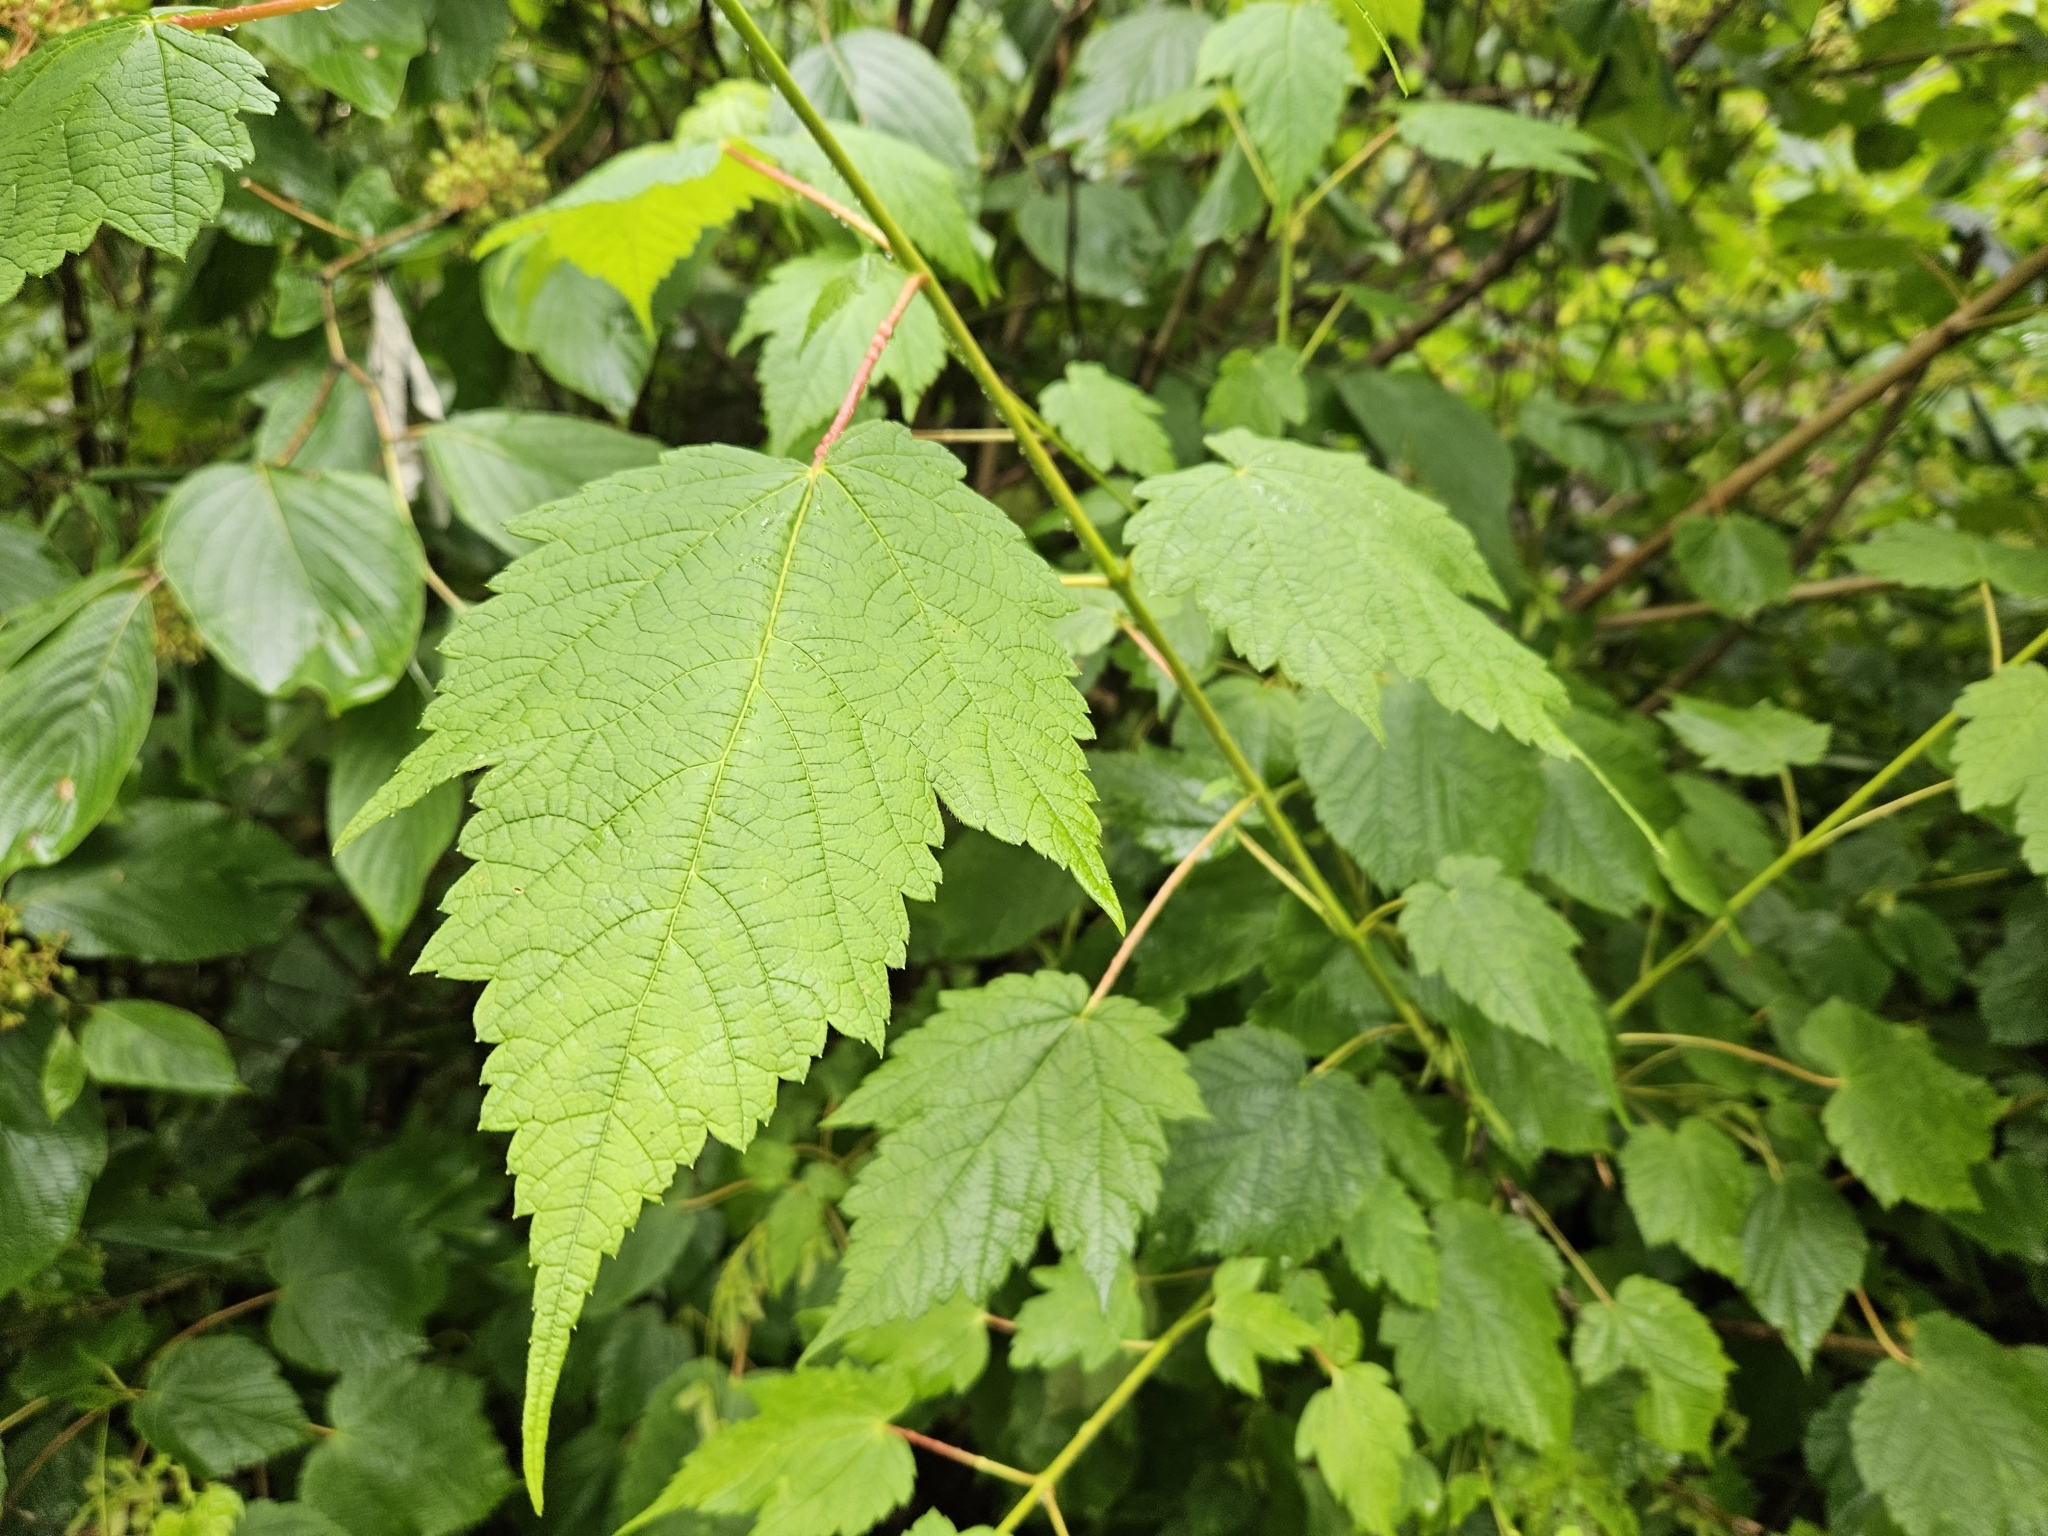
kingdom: Plantae
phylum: Tracheophyta
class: Magnoliopsida
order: Sapindales
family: Sapindaceae
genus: Acer
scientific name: Acer spicatum
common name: Mountain maple
